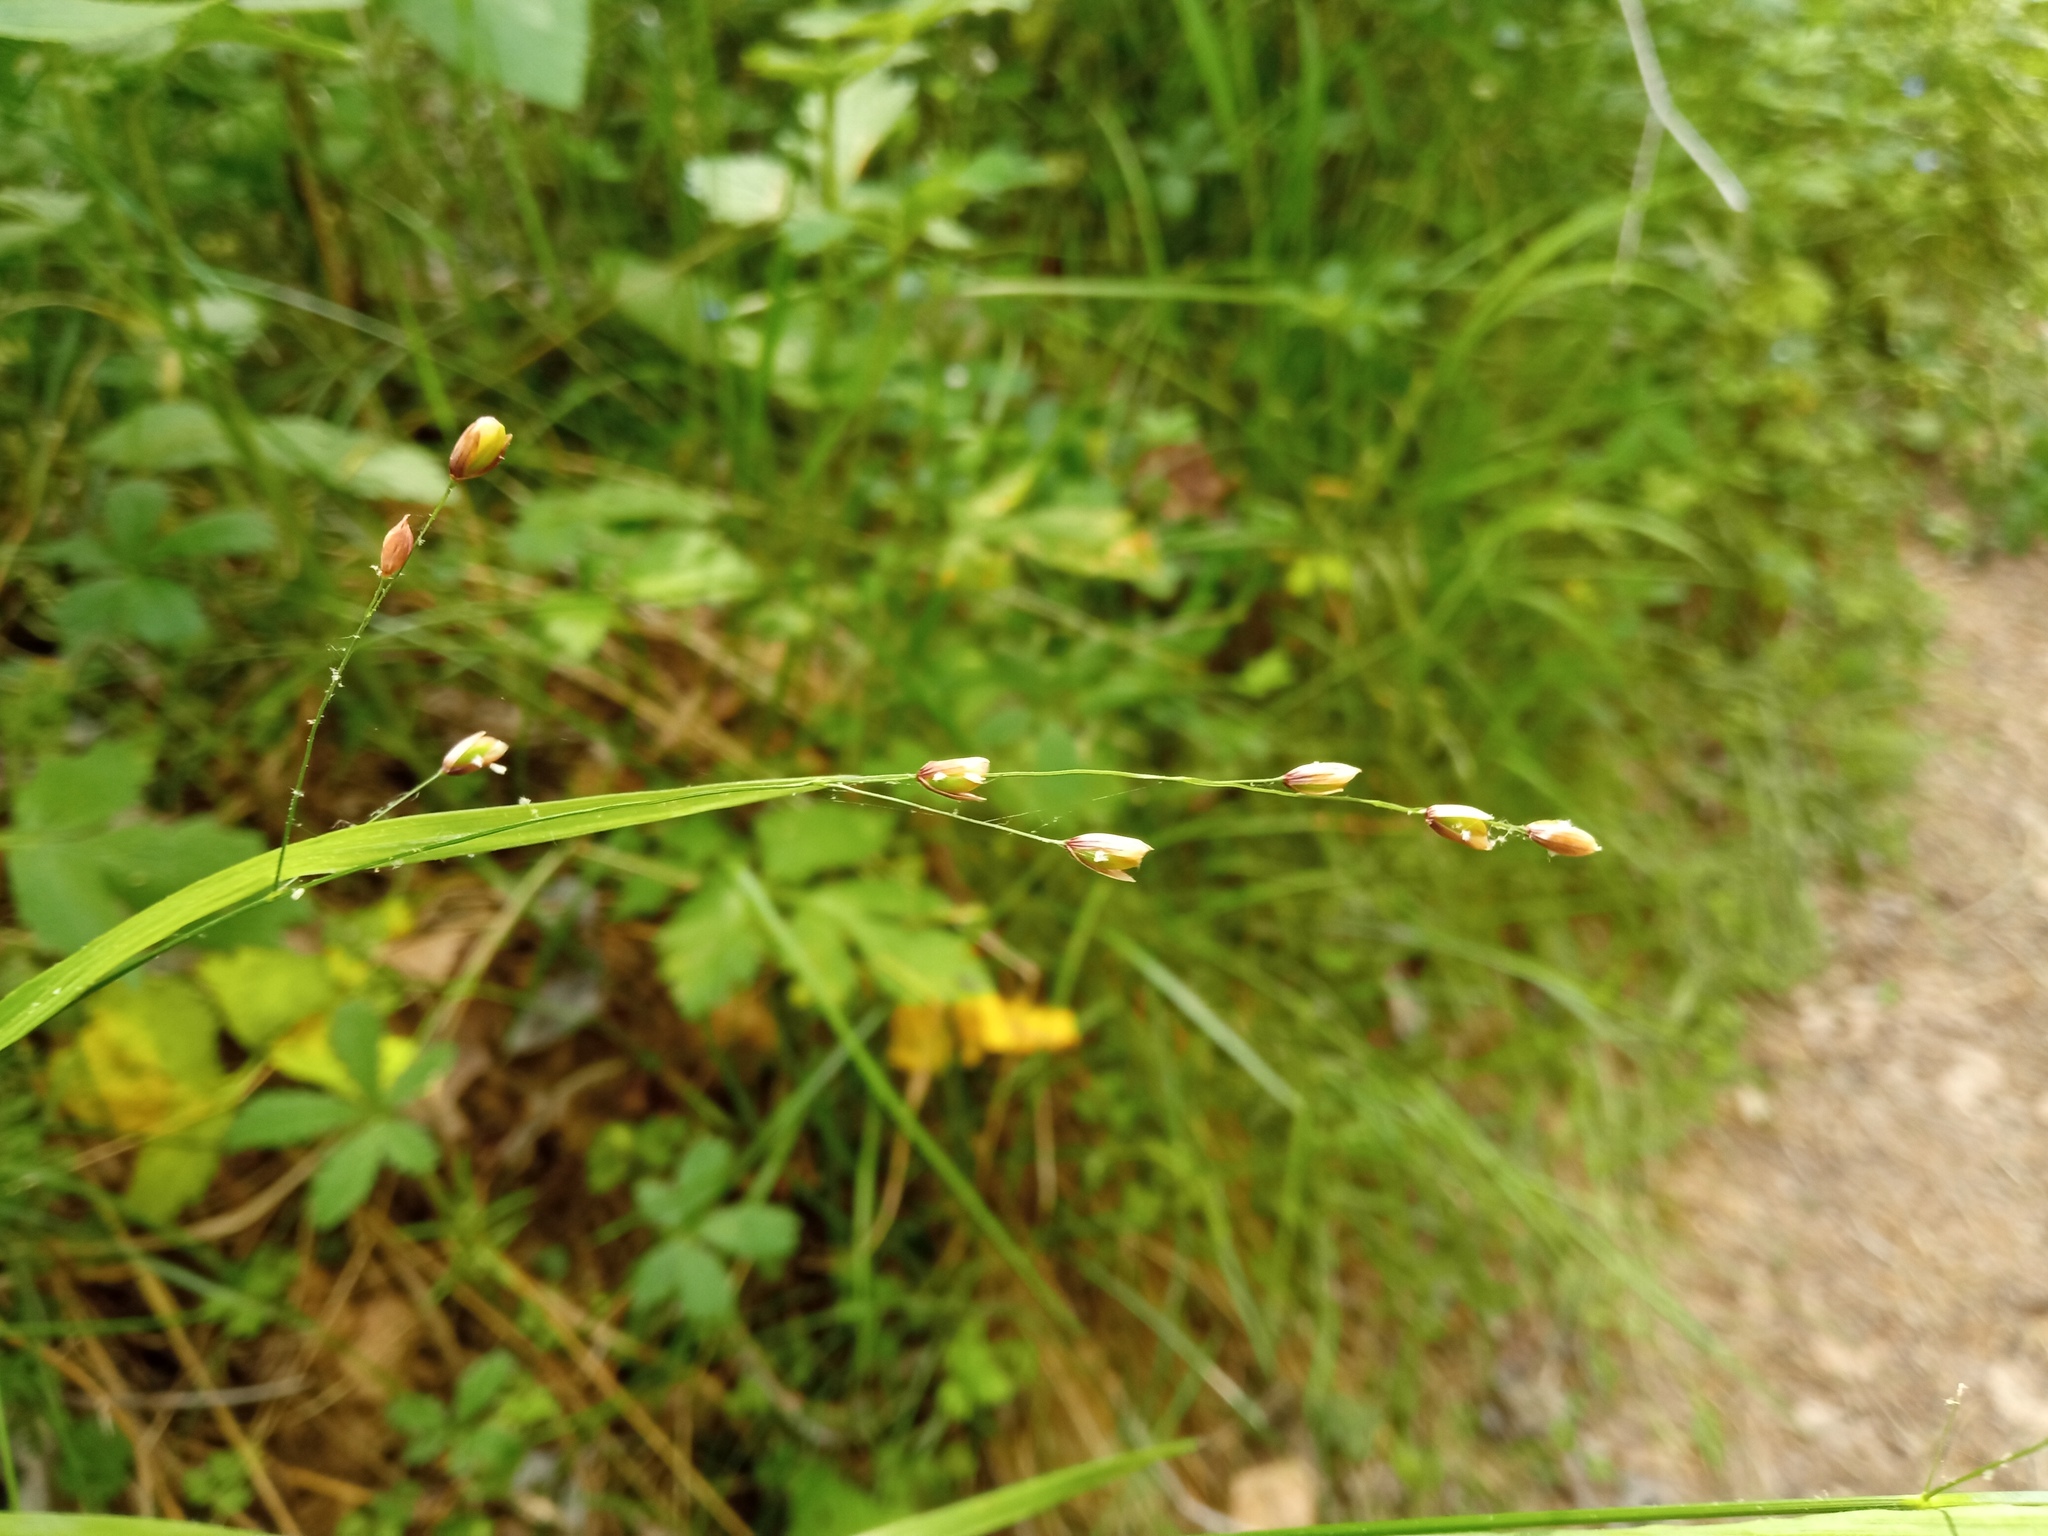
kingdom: Plantae
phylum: Tracheophyta
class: Liliopsida
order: Poales
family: Poaceae
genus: Melica
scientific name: Melica uniflora
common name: Wood melick
